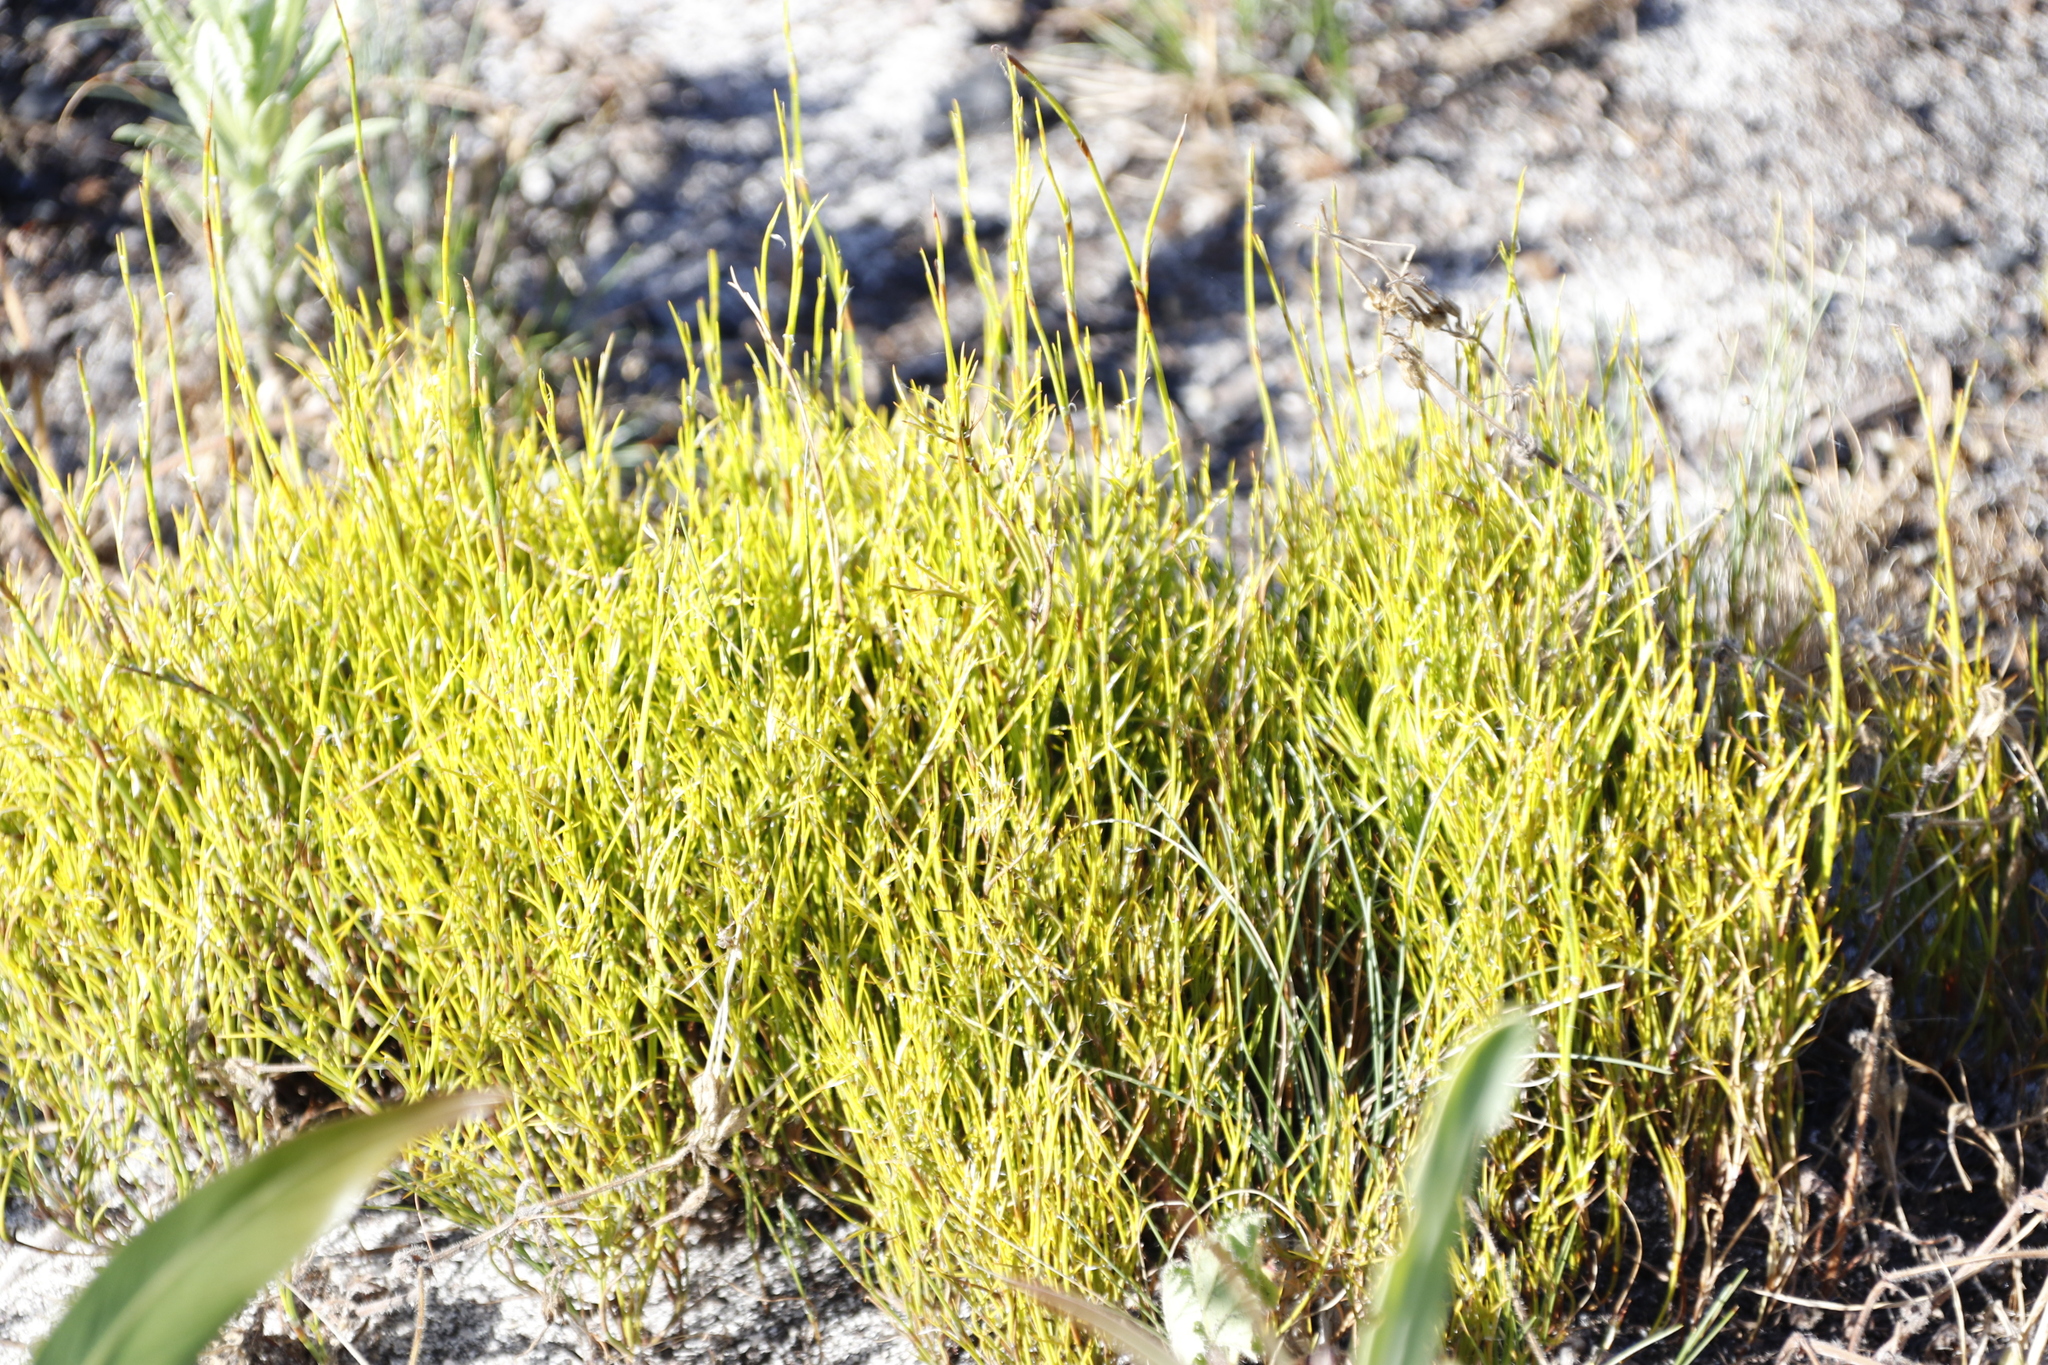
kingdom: Plantae
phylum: Tracheophyta
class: Liliopsida
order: Poales
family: Restionaceae
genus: Restio
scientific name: Restio capensis
